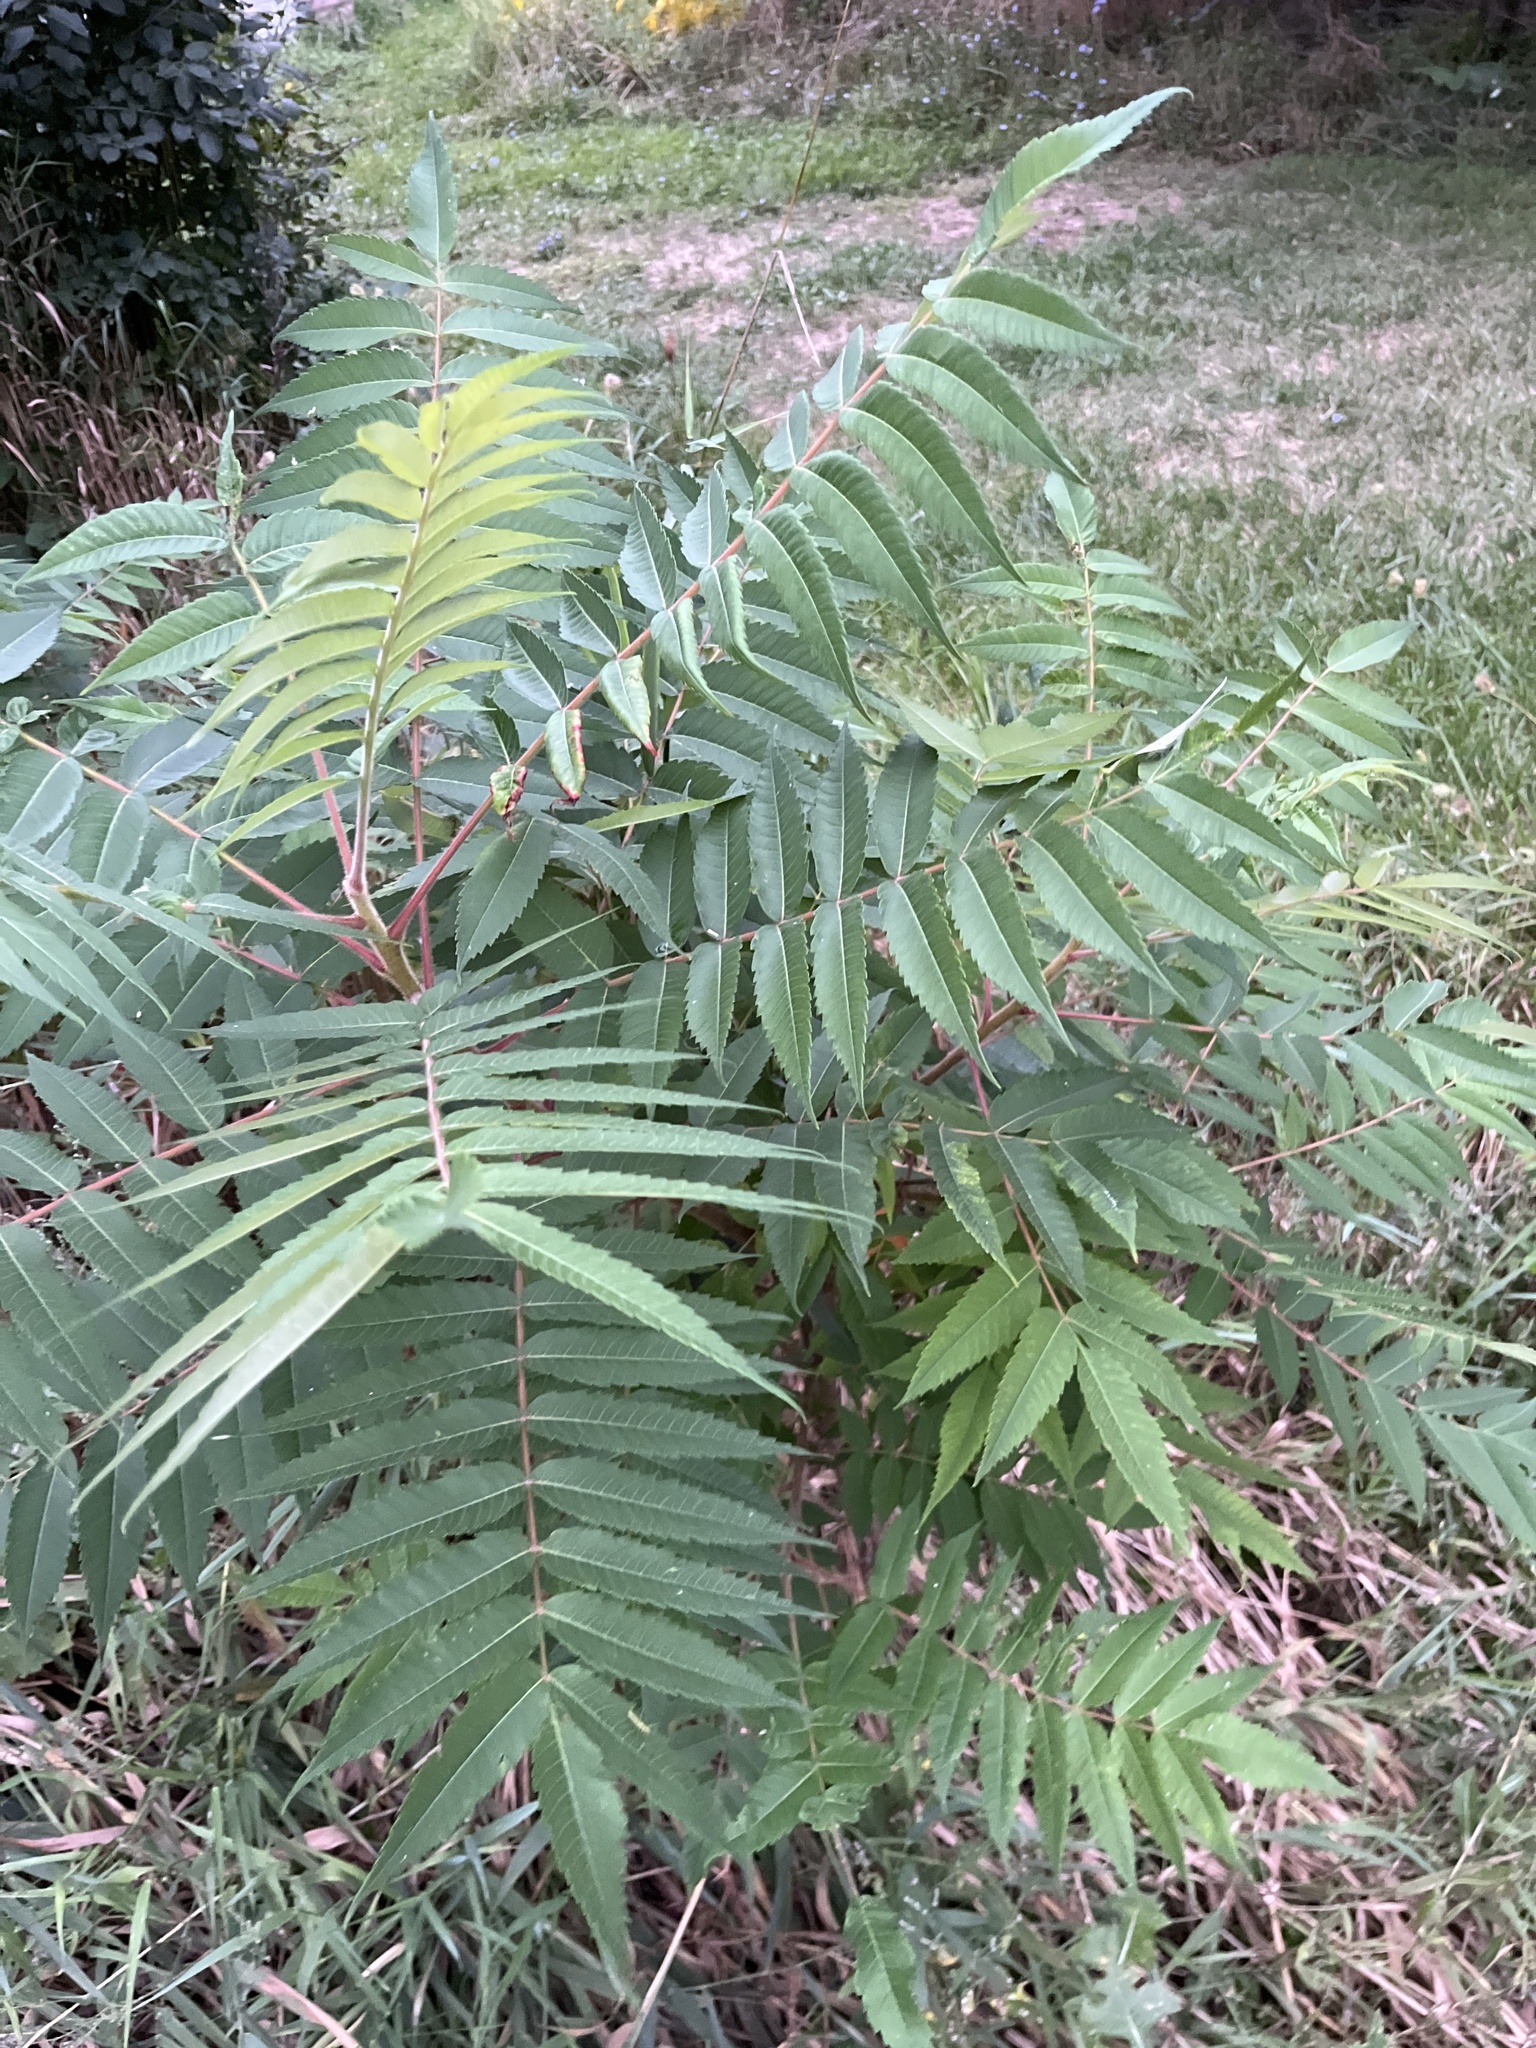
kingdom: Plantae
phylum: Tracheophyta
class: Magnoliopsida
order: Sapindales
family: Anacardiaceae
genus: Rhus
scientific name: Rhus typhina
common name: Staghorn sumac
